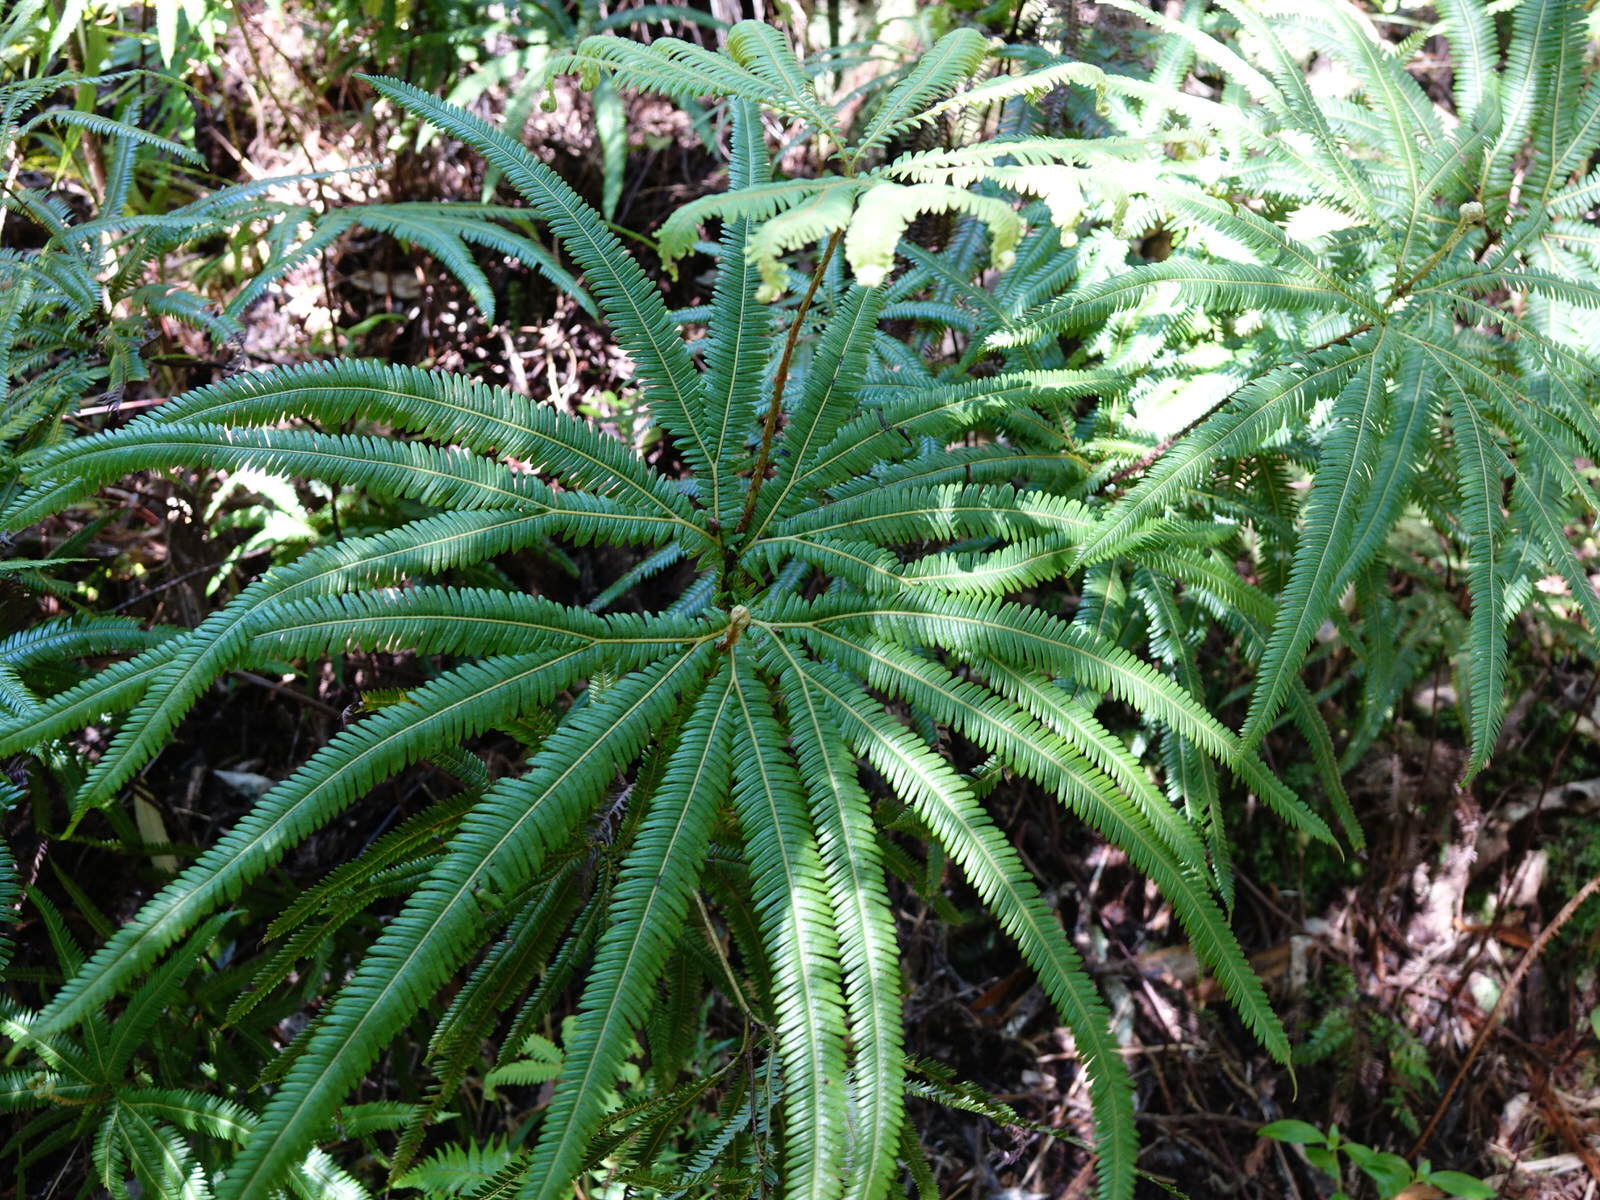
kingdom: Plantae
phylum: Tracheophyta
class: Polypodiopsida
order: Gleicheniales
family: Gleicheniaceae
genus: Sticherus
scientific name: Sticherus cunninghamii
